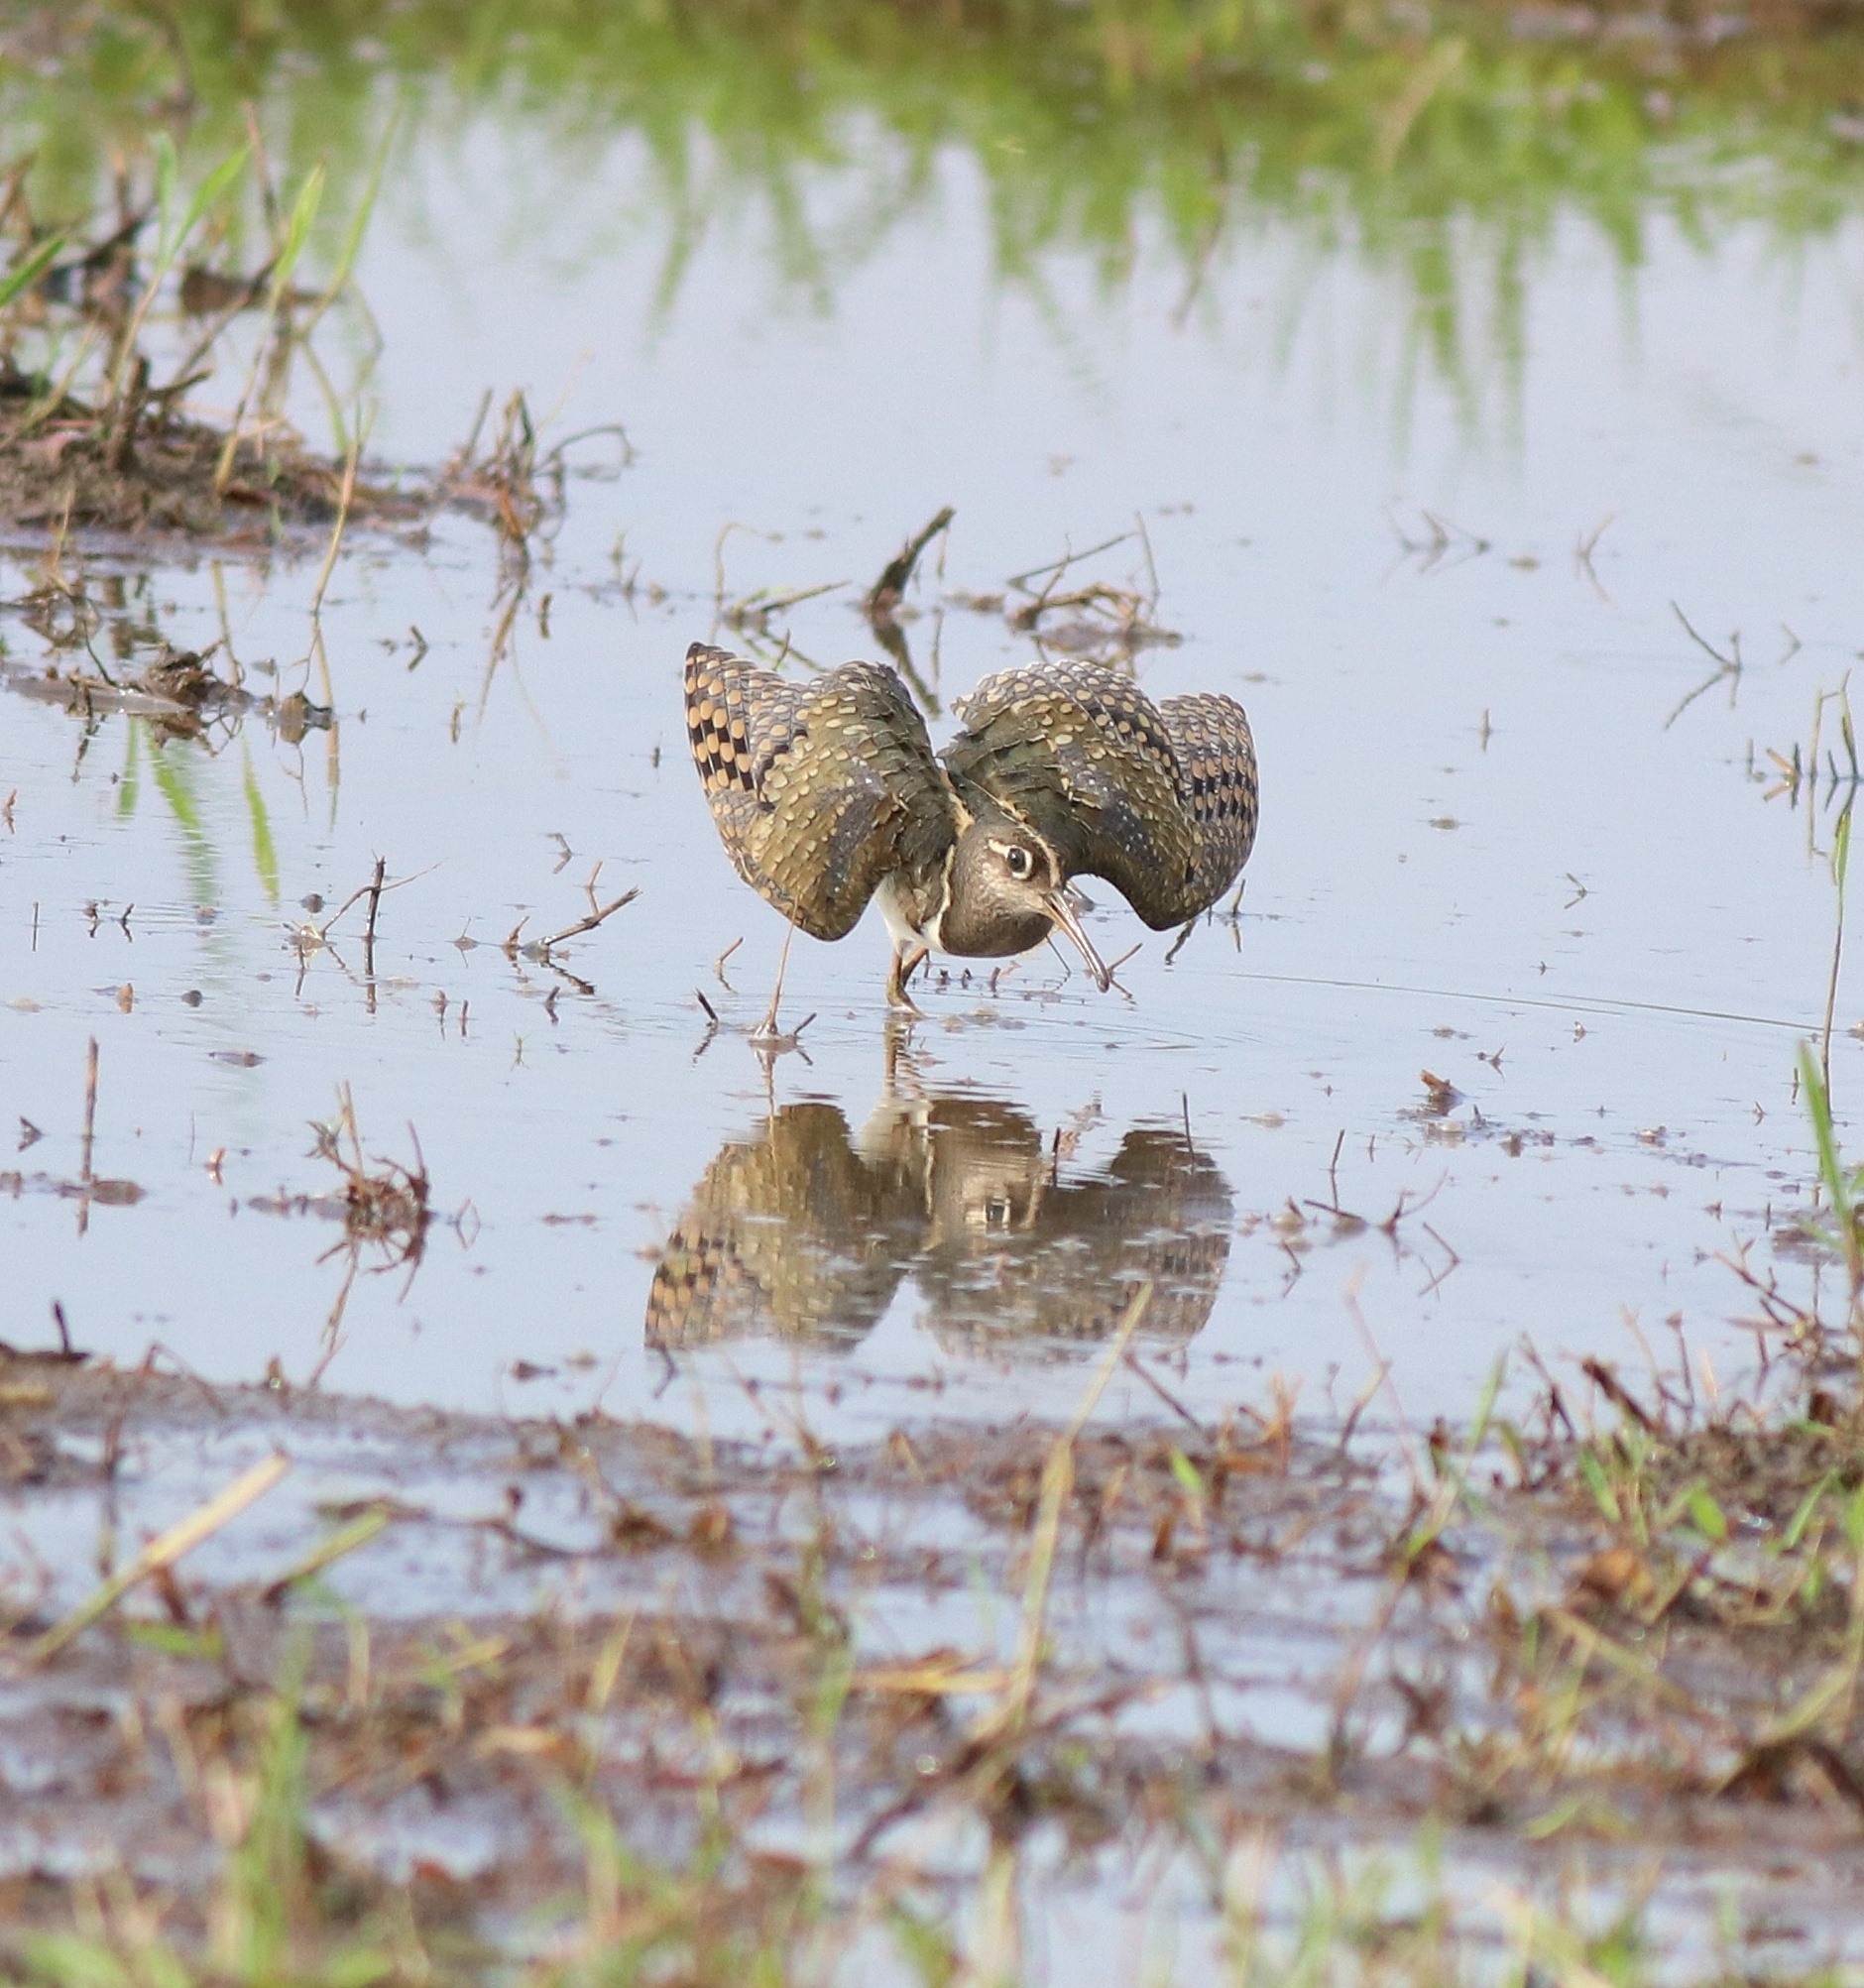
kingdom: Animalia
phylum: Chordata
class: Aves
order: Charadriiformes
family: Rostratulidae
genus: Rostratula
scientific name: Rostratula benghalensis
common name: Greater painted-snipe
